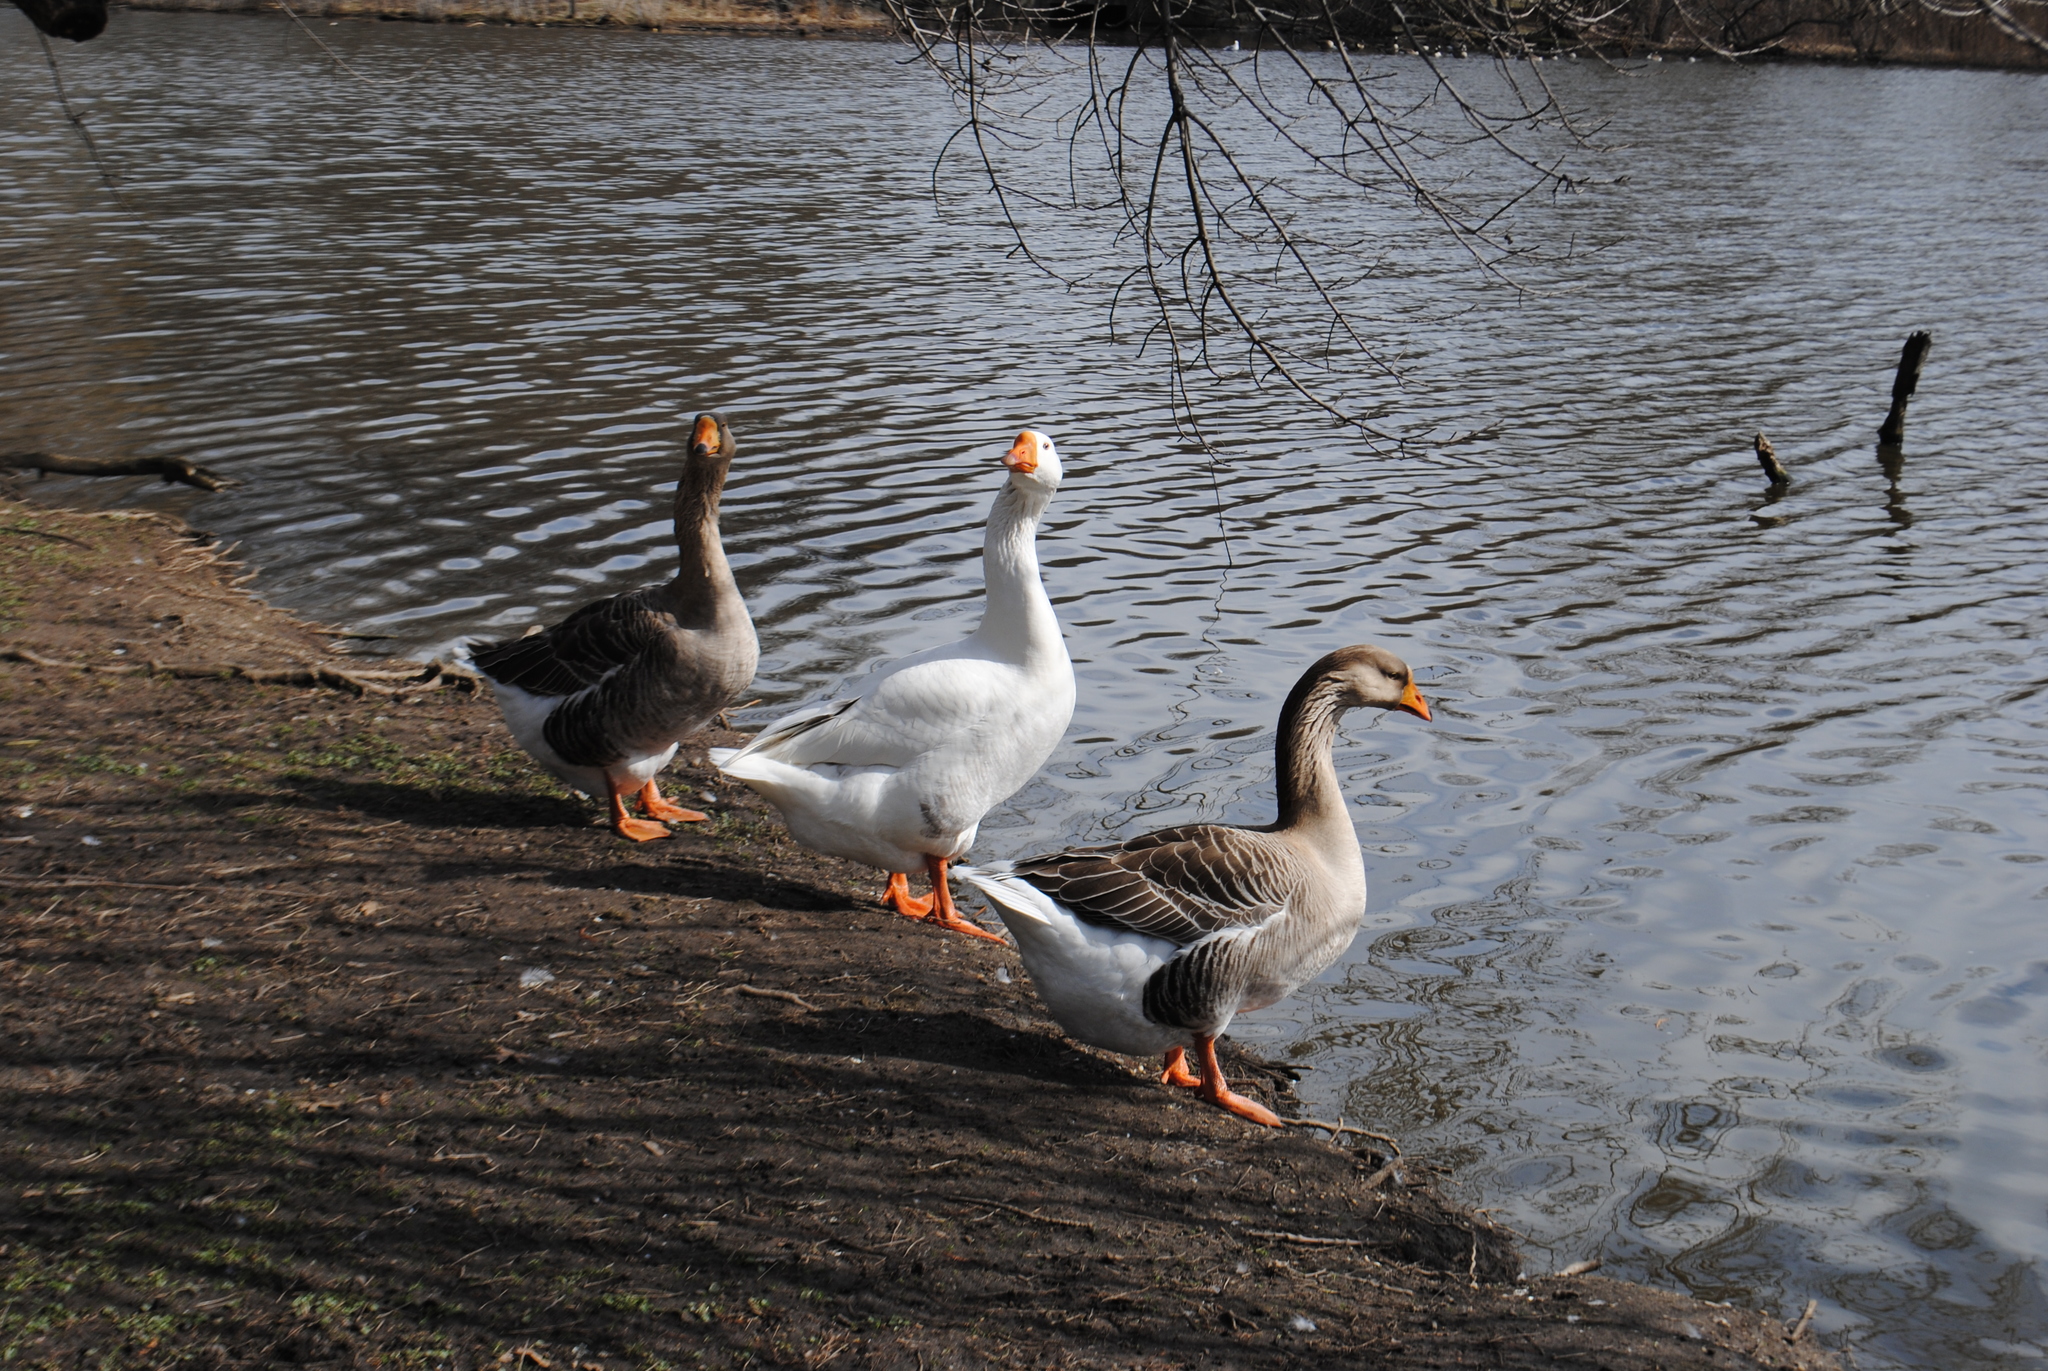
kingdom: Animalia
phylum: Chordata
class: Aves
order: Anseriformes
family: Anatidae
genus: Anser
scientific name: Anser anser
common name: Greylag goose
